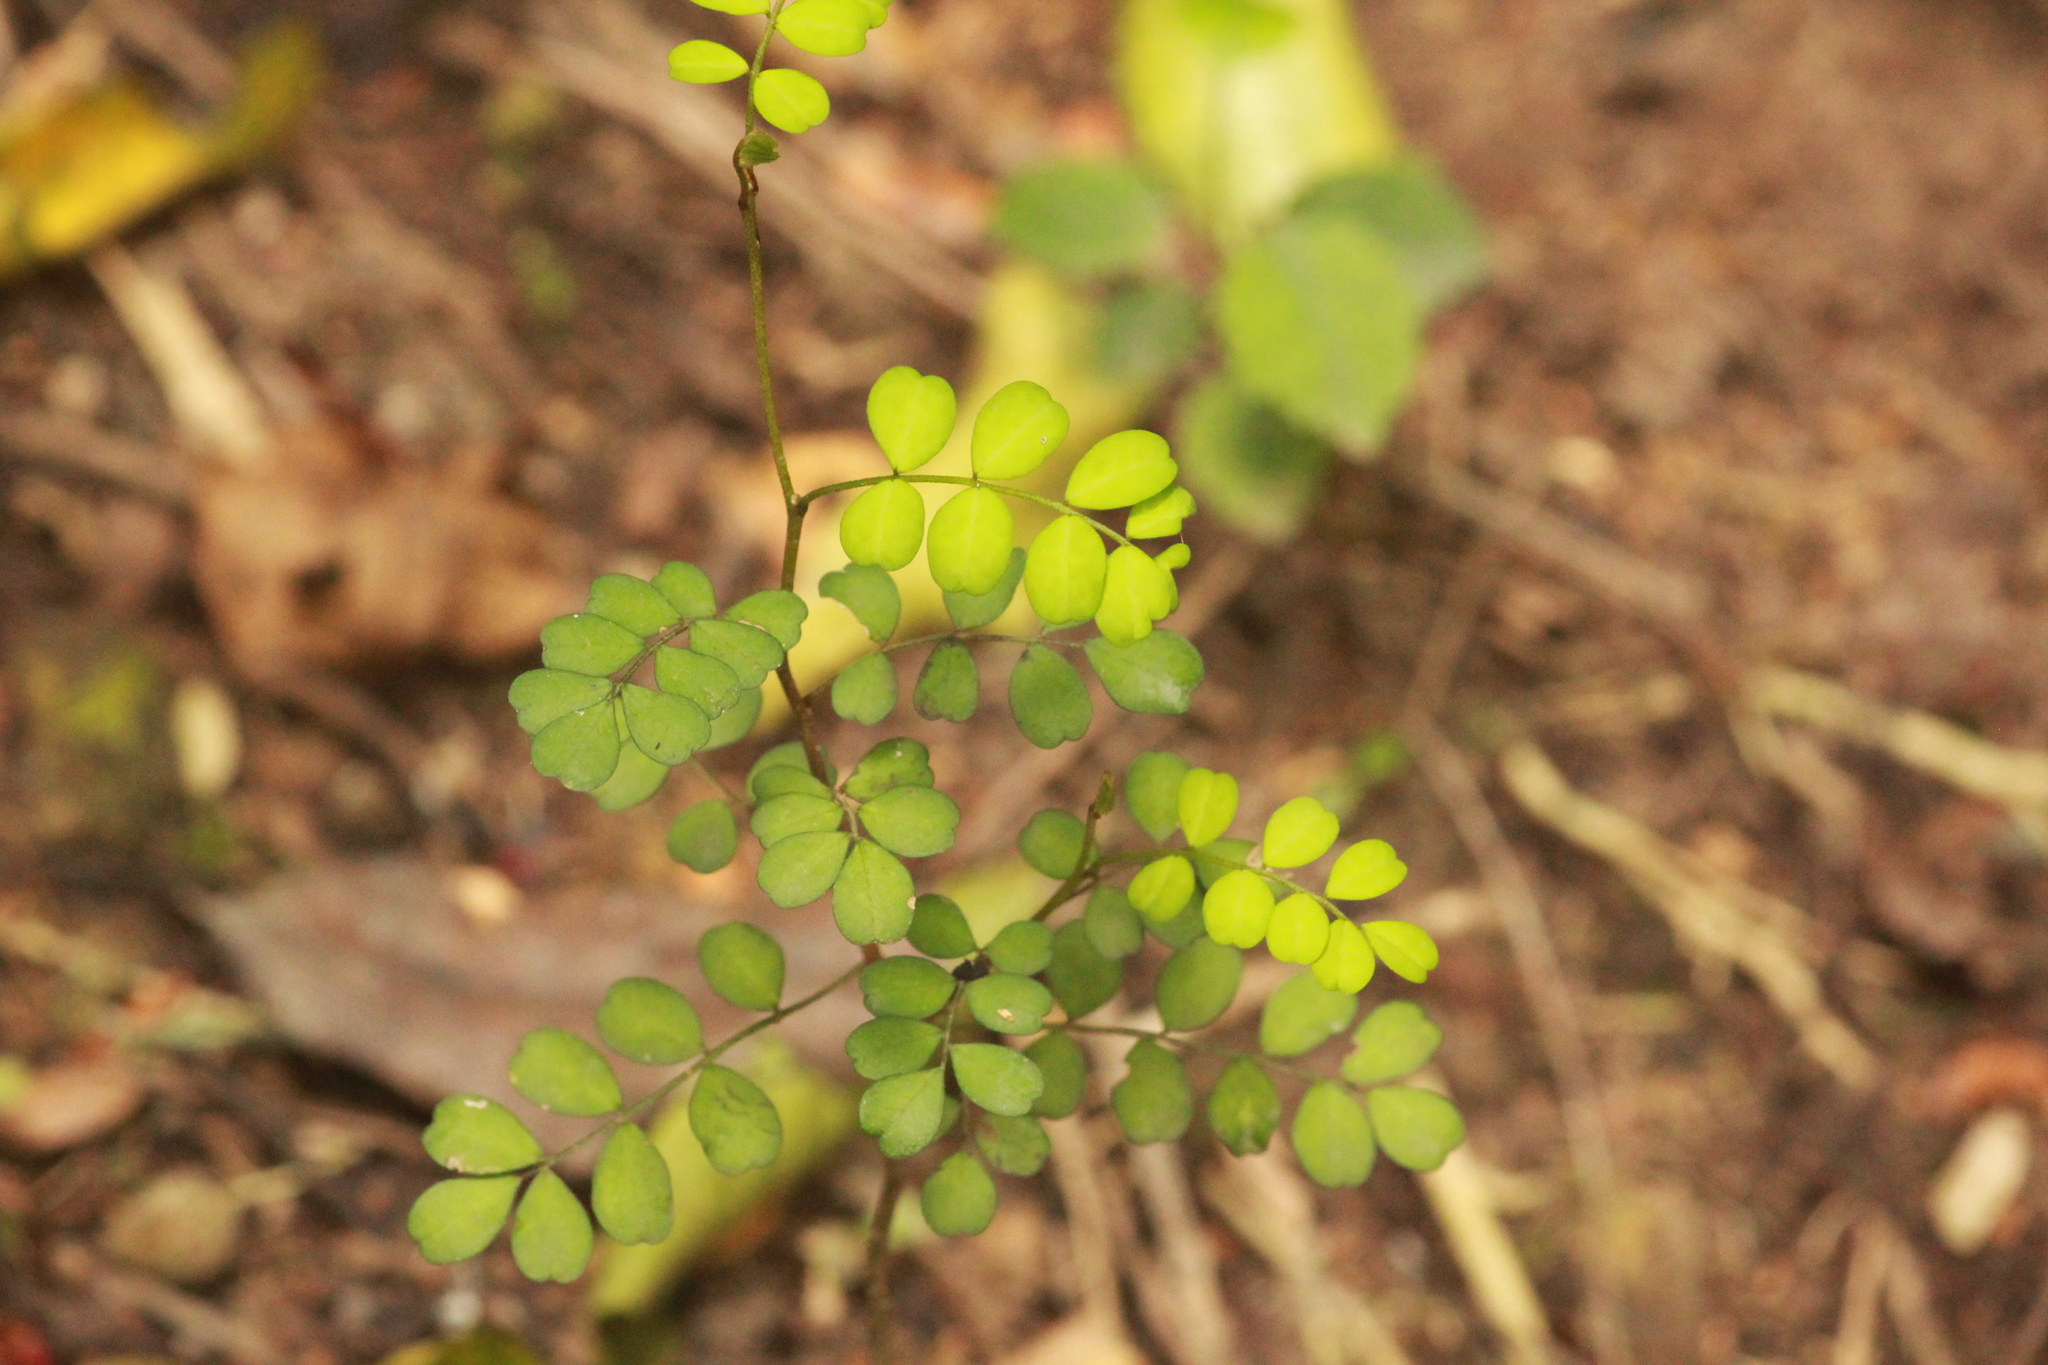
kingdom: Plantae
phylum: Tracheophyta
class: Magnoliopsida
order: Fabales
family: Fabaceae
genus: Sophora
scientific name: Sophora
